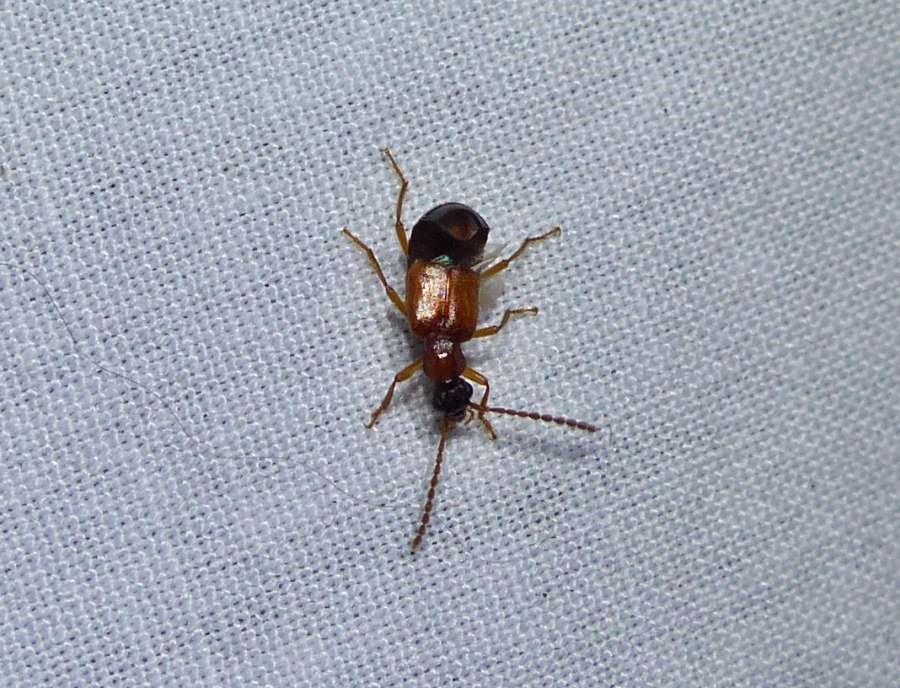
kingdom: Animalia
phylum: Arthropoda
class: Insecta
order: Coleoptera
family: Staphylinidae
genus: Deleaster
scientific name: Deleaster dichrous
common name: Rove beetle
